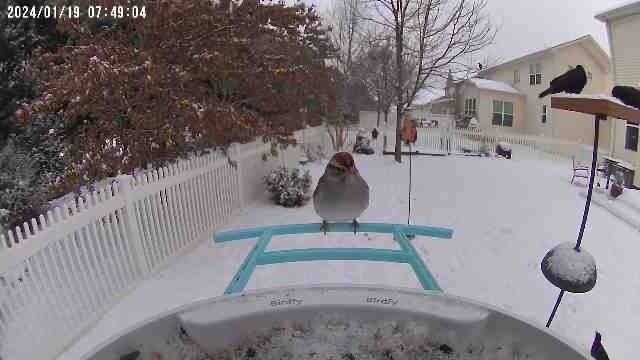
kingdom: Animalia
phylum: Chordata
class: Aves
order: Passeriformes
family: Passerellidae
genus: Spizella
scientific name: Spizella passerina
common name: Chipping sparrow
